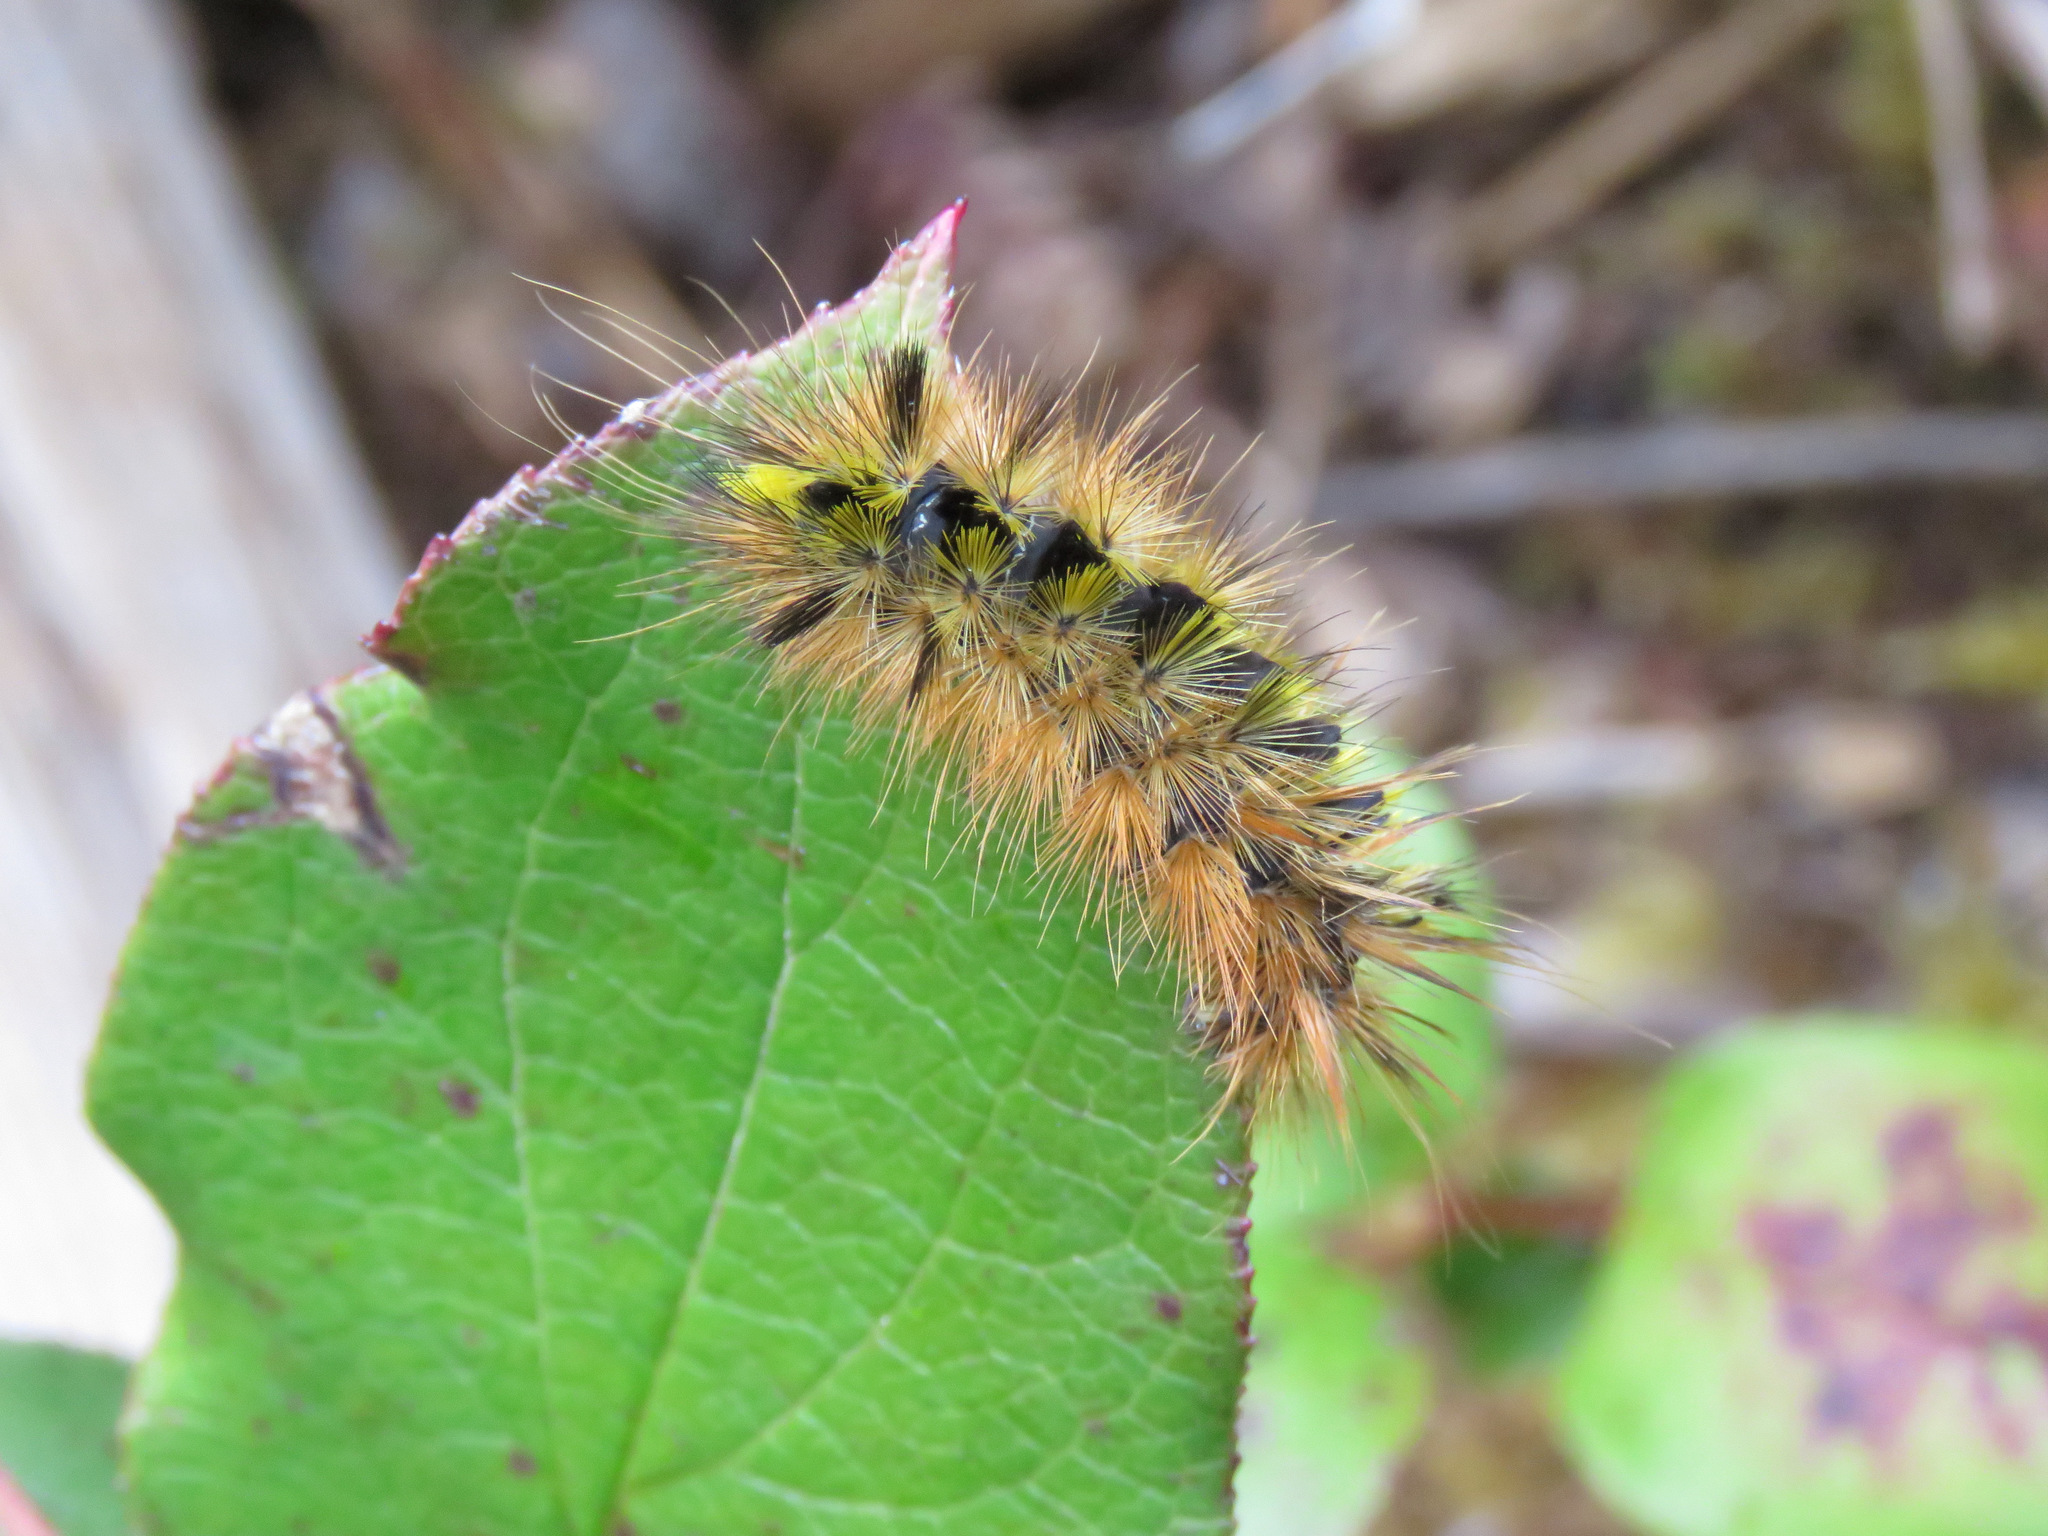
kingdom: Animalia
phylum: Arthropoda
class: Insecta
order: Lepidoptera
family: Erebidae
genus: Lophocampa
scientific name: Lophocampa argentata
